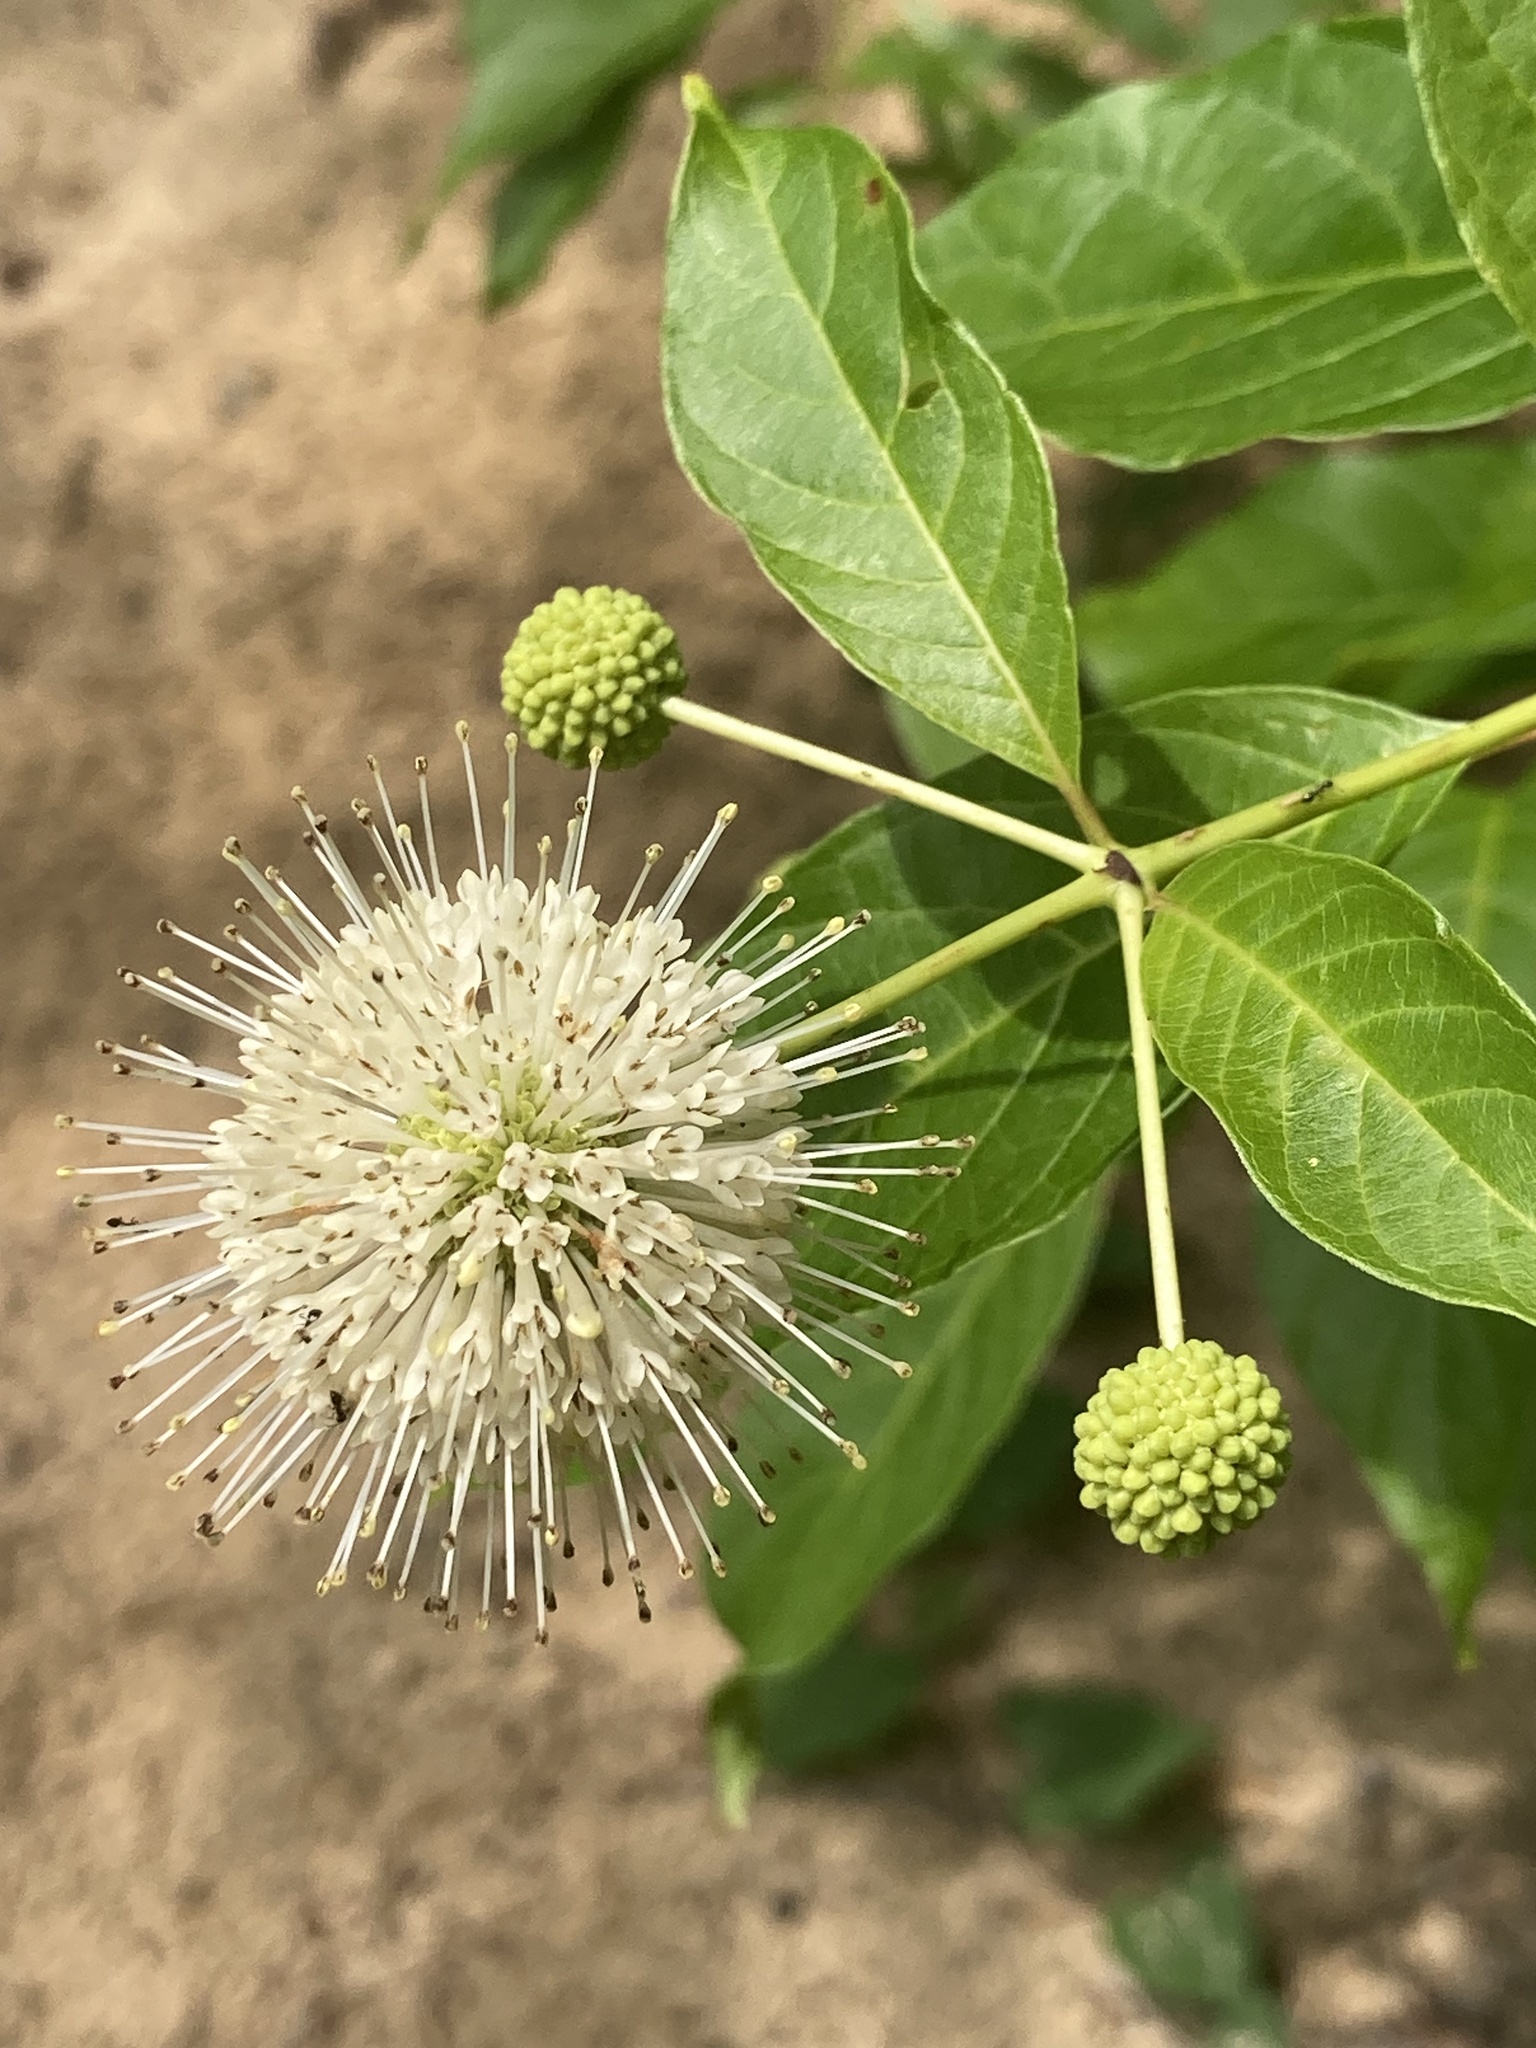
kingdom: Plantae
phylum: Tracheophyta
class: Magnoliopsida
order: Gentianales
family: Rubiaceae
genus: Cephalanthus
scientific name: Cephalanthus occidentalis
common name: Button-willow
